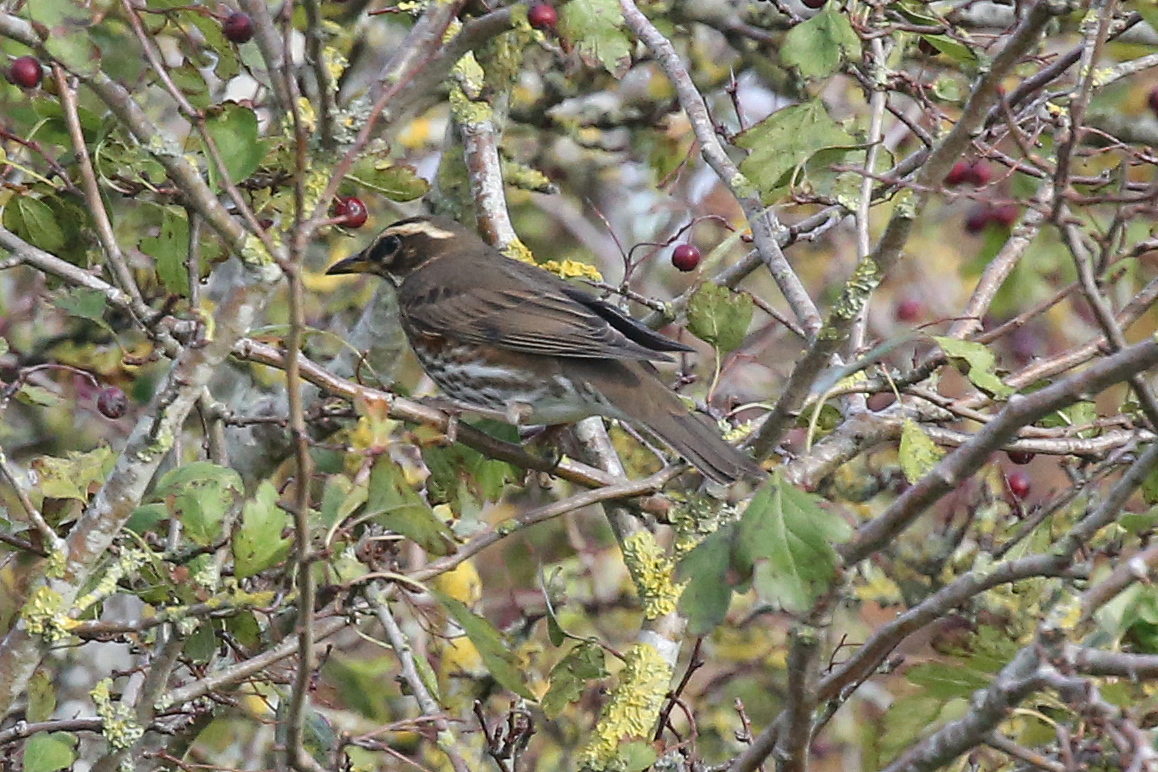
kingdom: Animalia
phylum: Chordata
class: Aves
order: Passeriformes
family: Turdidae
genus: Turdus
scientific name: Turdus iliacus
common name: Redwing
